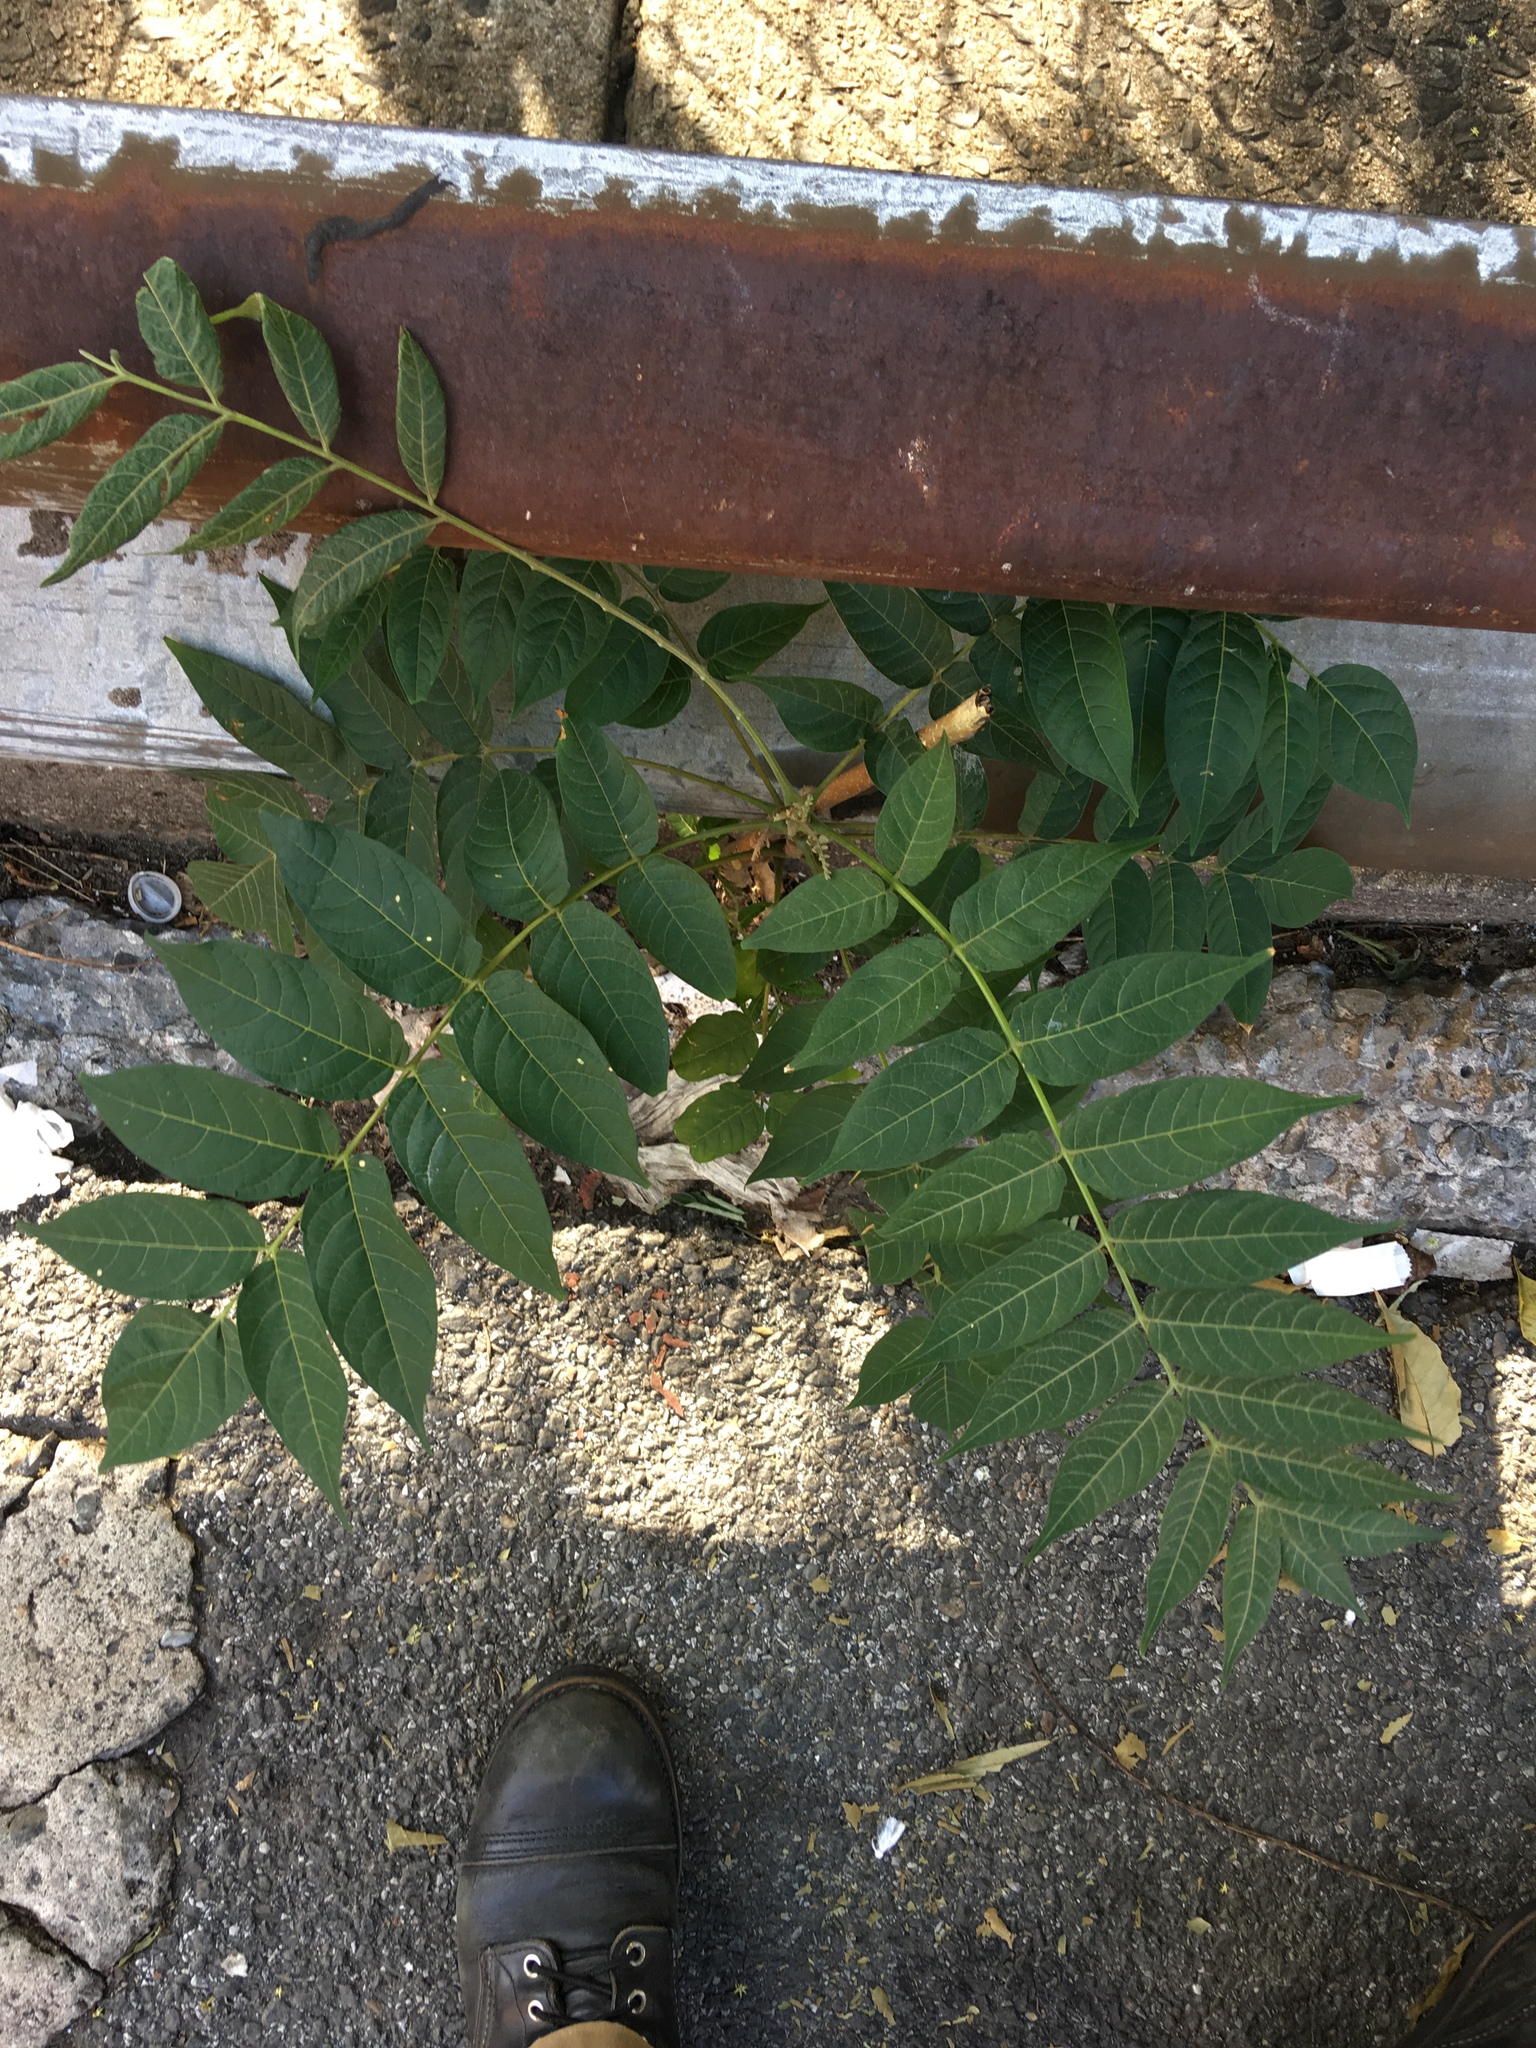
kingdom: Plantae
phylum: Tracheophyta
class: Magnoliopsida
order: Sapindales
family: Simaroubaceae
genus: Ailanthus
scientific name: Ailanthus altissima
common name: Tree-of-heaven
